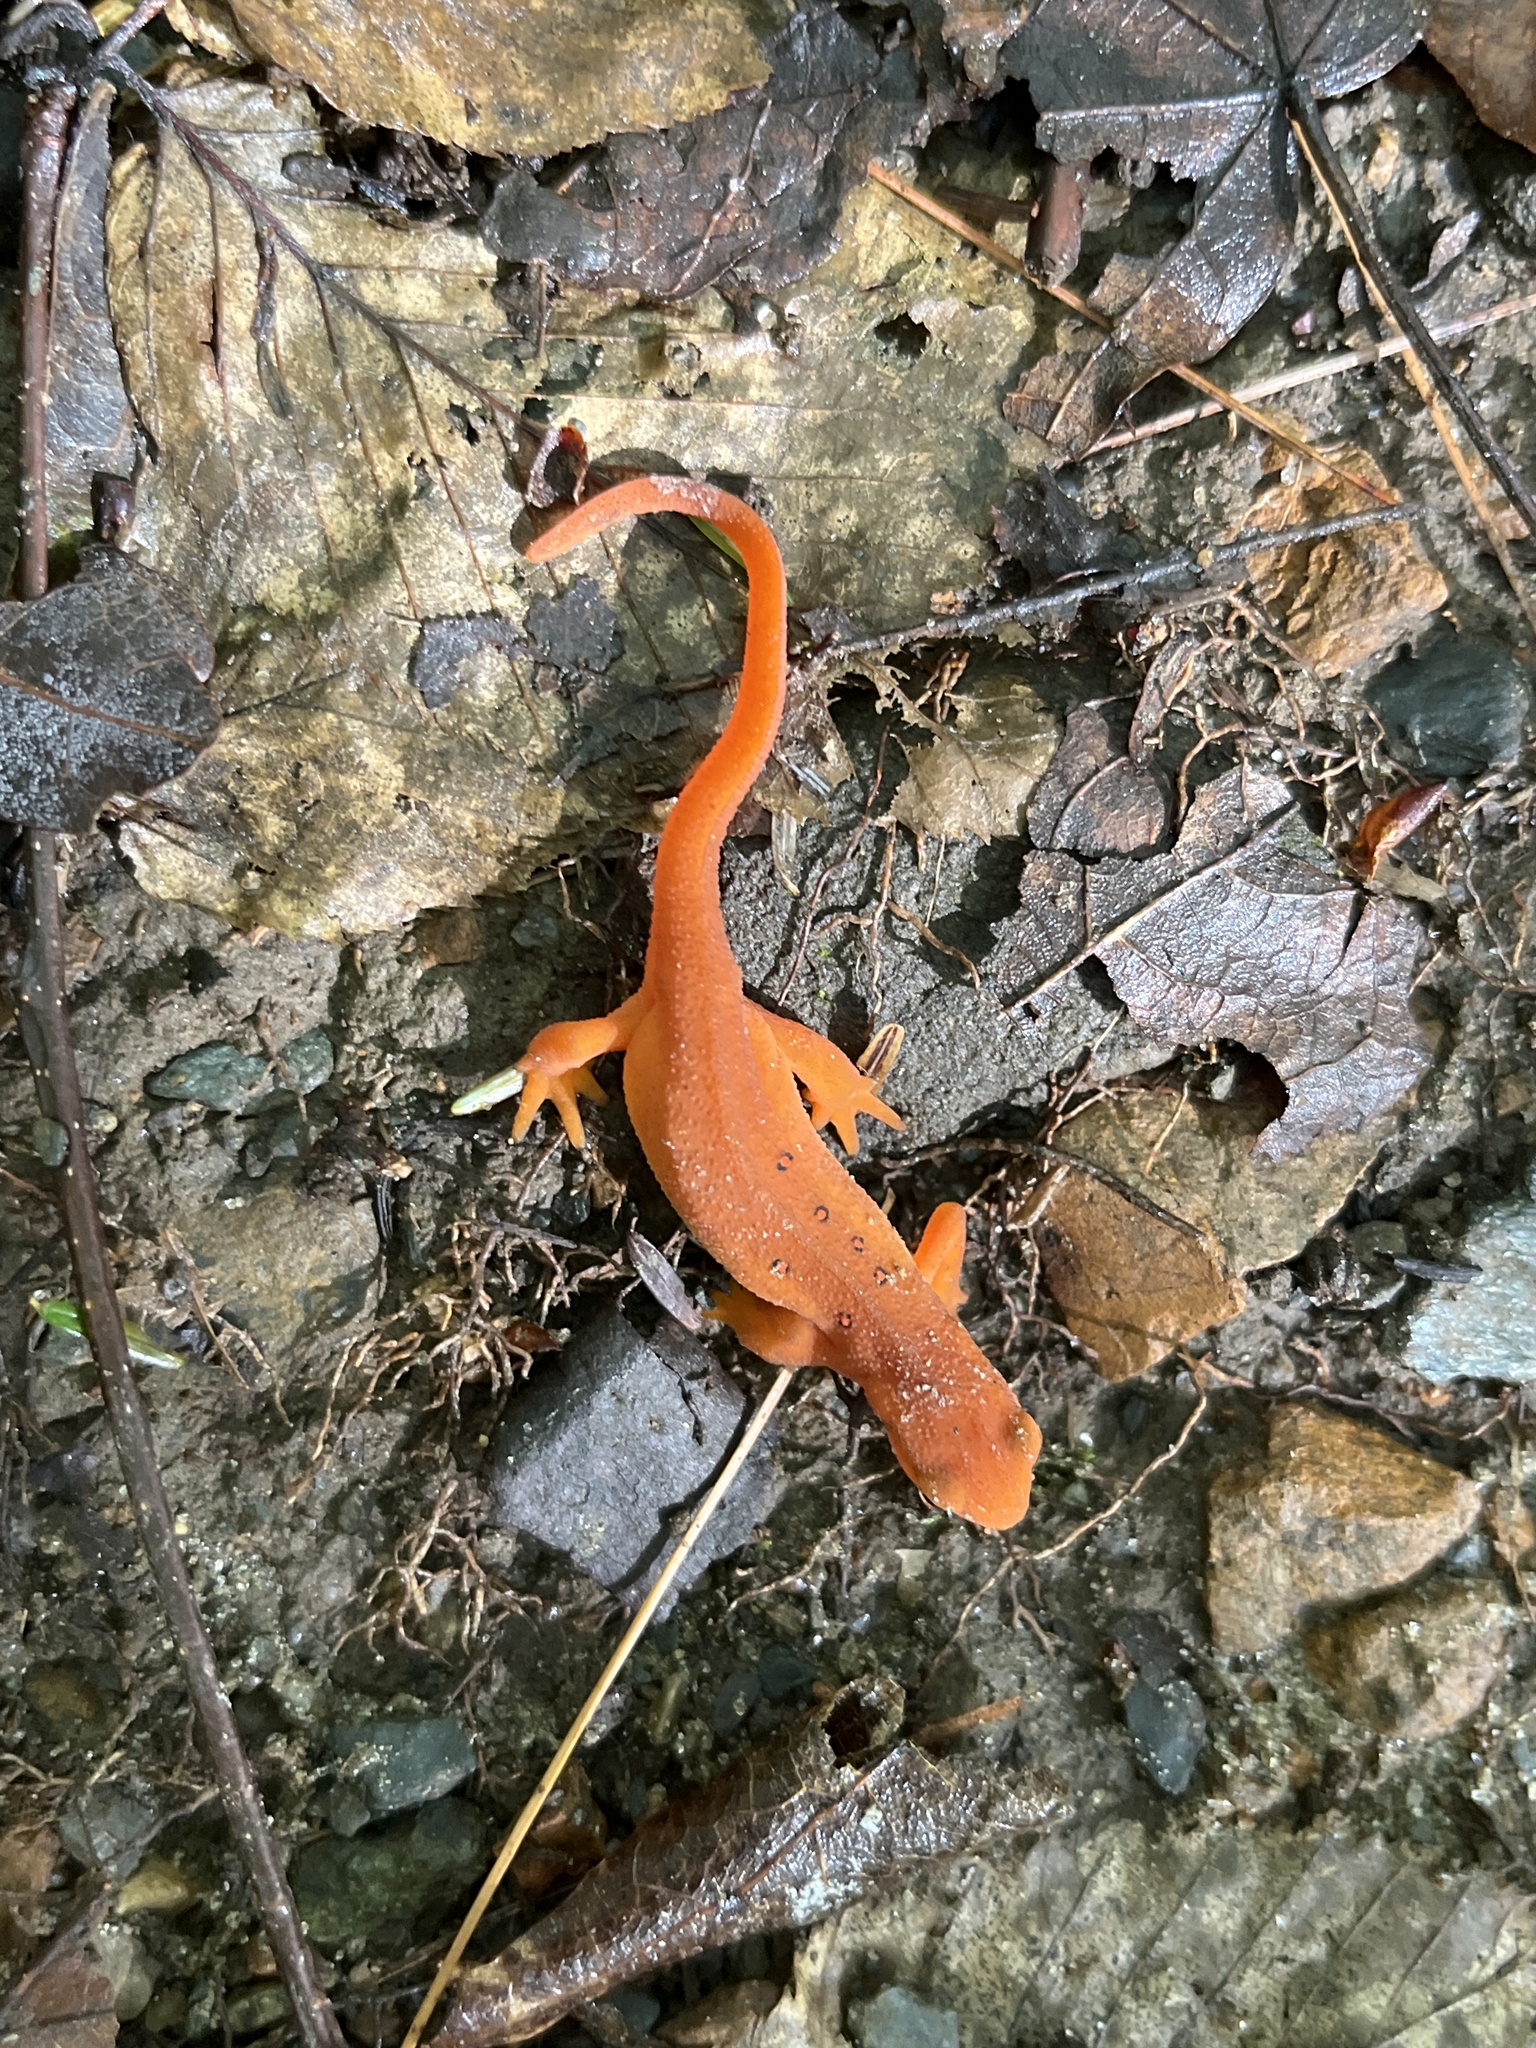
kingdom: Animalia
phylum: Chordata
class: Amphibia
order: Caudata
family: Salamandridae
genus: Notophthalmus
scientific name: Notophthalmus viridescens
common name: Eastern newt
